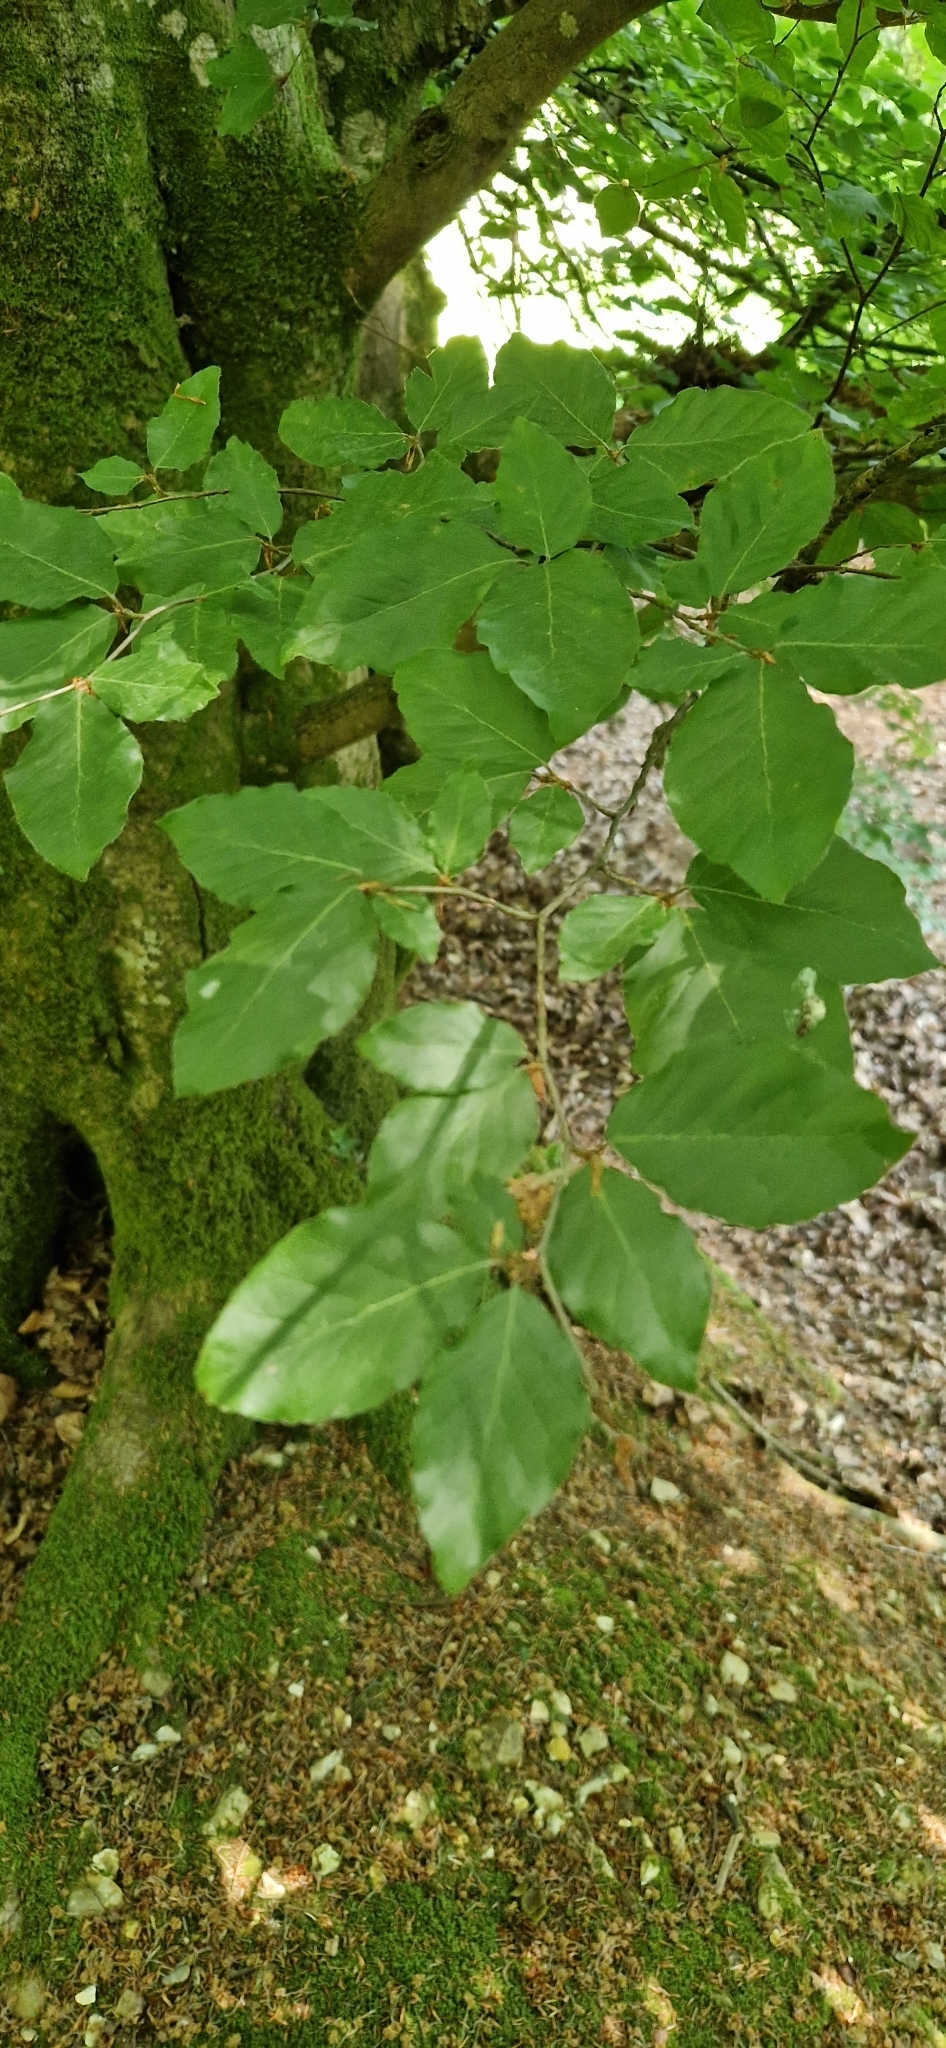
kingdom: Plantae
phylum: Tracheophyta
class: Magnoliopsida
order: Fagales
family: Fagaceae
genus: Fagus
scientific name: Fagus sylvatica
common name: Beech
